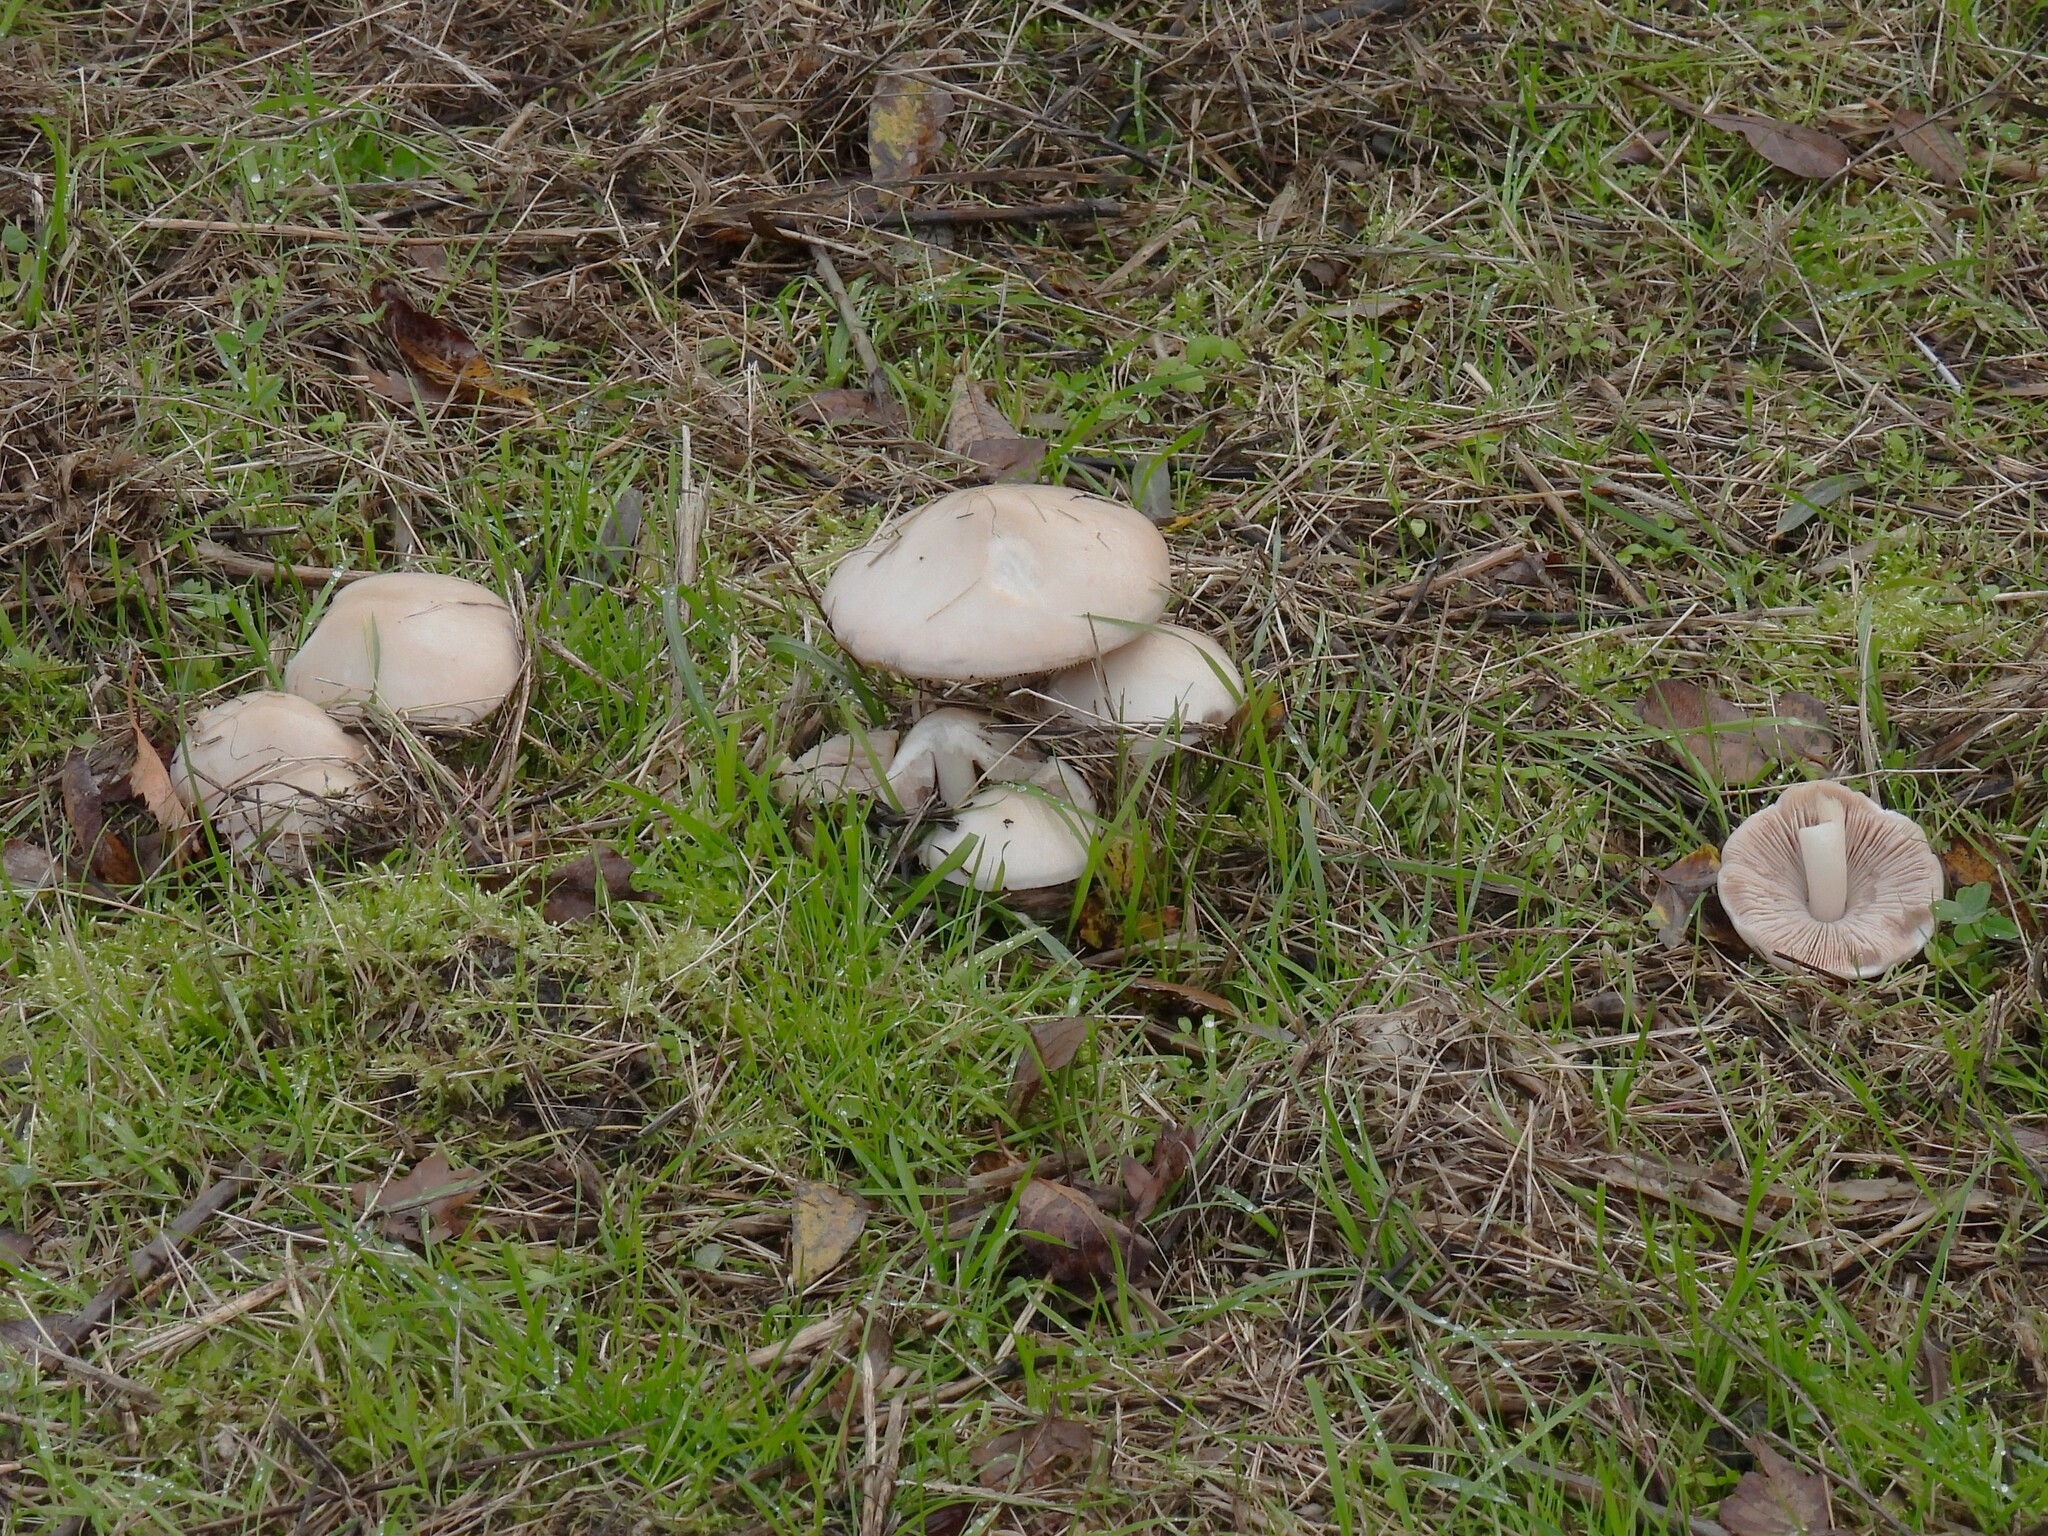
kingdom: Fungi
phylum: Basidiomycota
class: Agaricomycetes
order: Agaricales
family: Pluteaceae
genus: Volvopluteus
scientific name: Volvopluteus gloiocephalus
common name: Stubble rosegill
